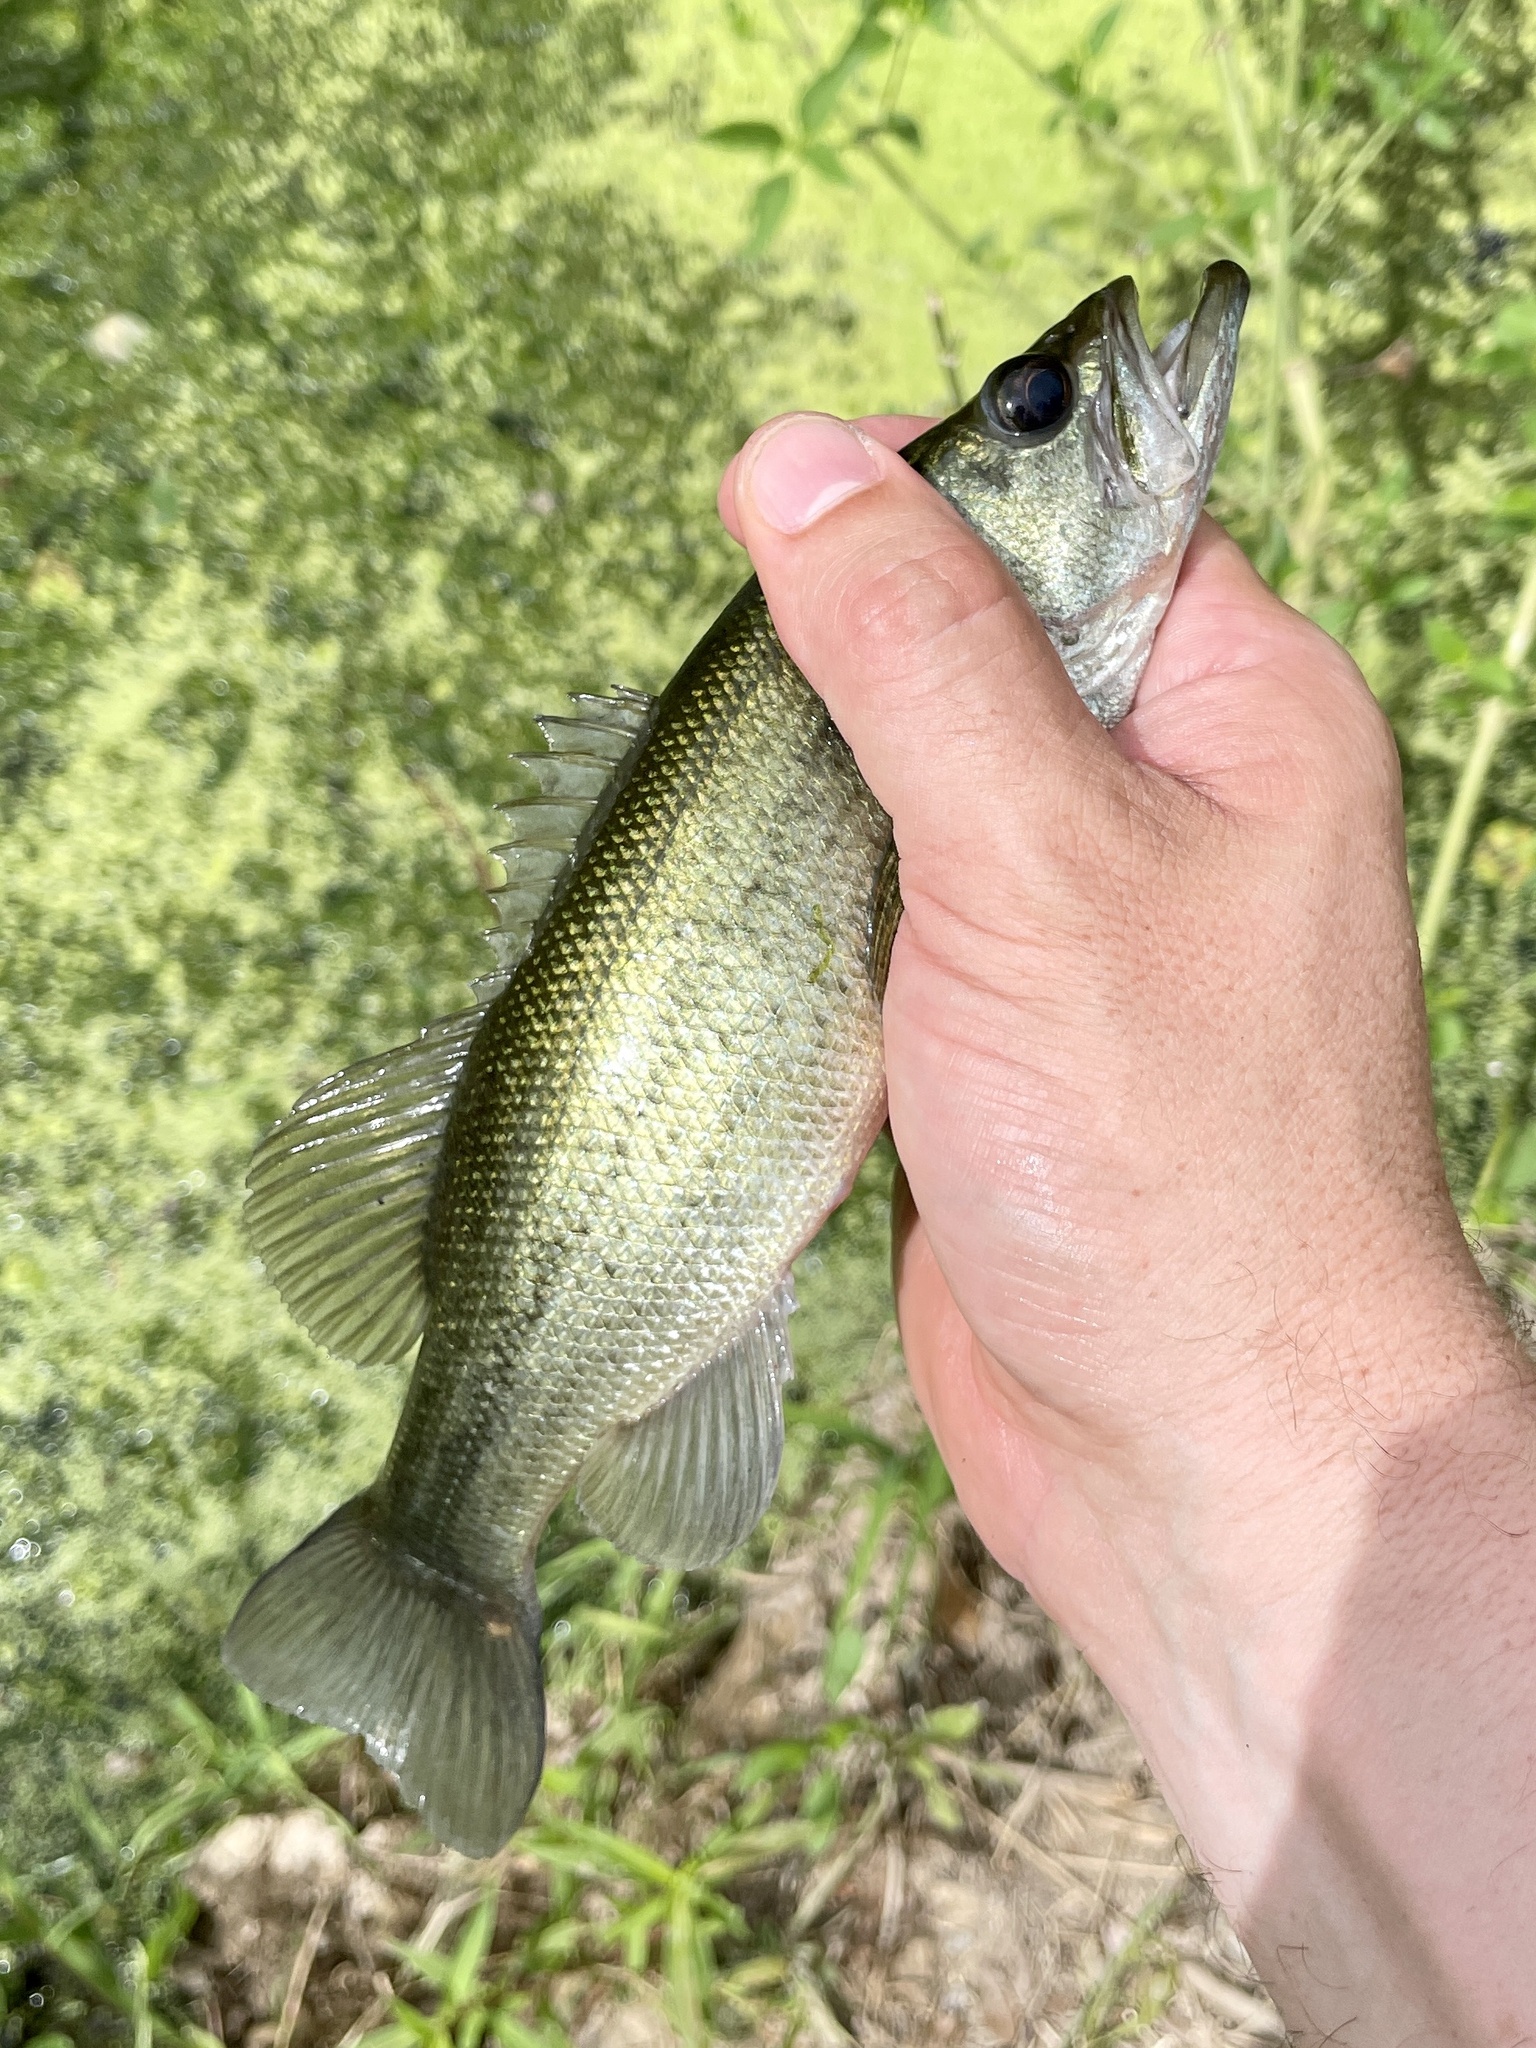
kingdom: Animalia
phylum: Chordata
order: Perciformes
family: Centrarchidae
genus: Micropterus
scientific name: Micropterus
